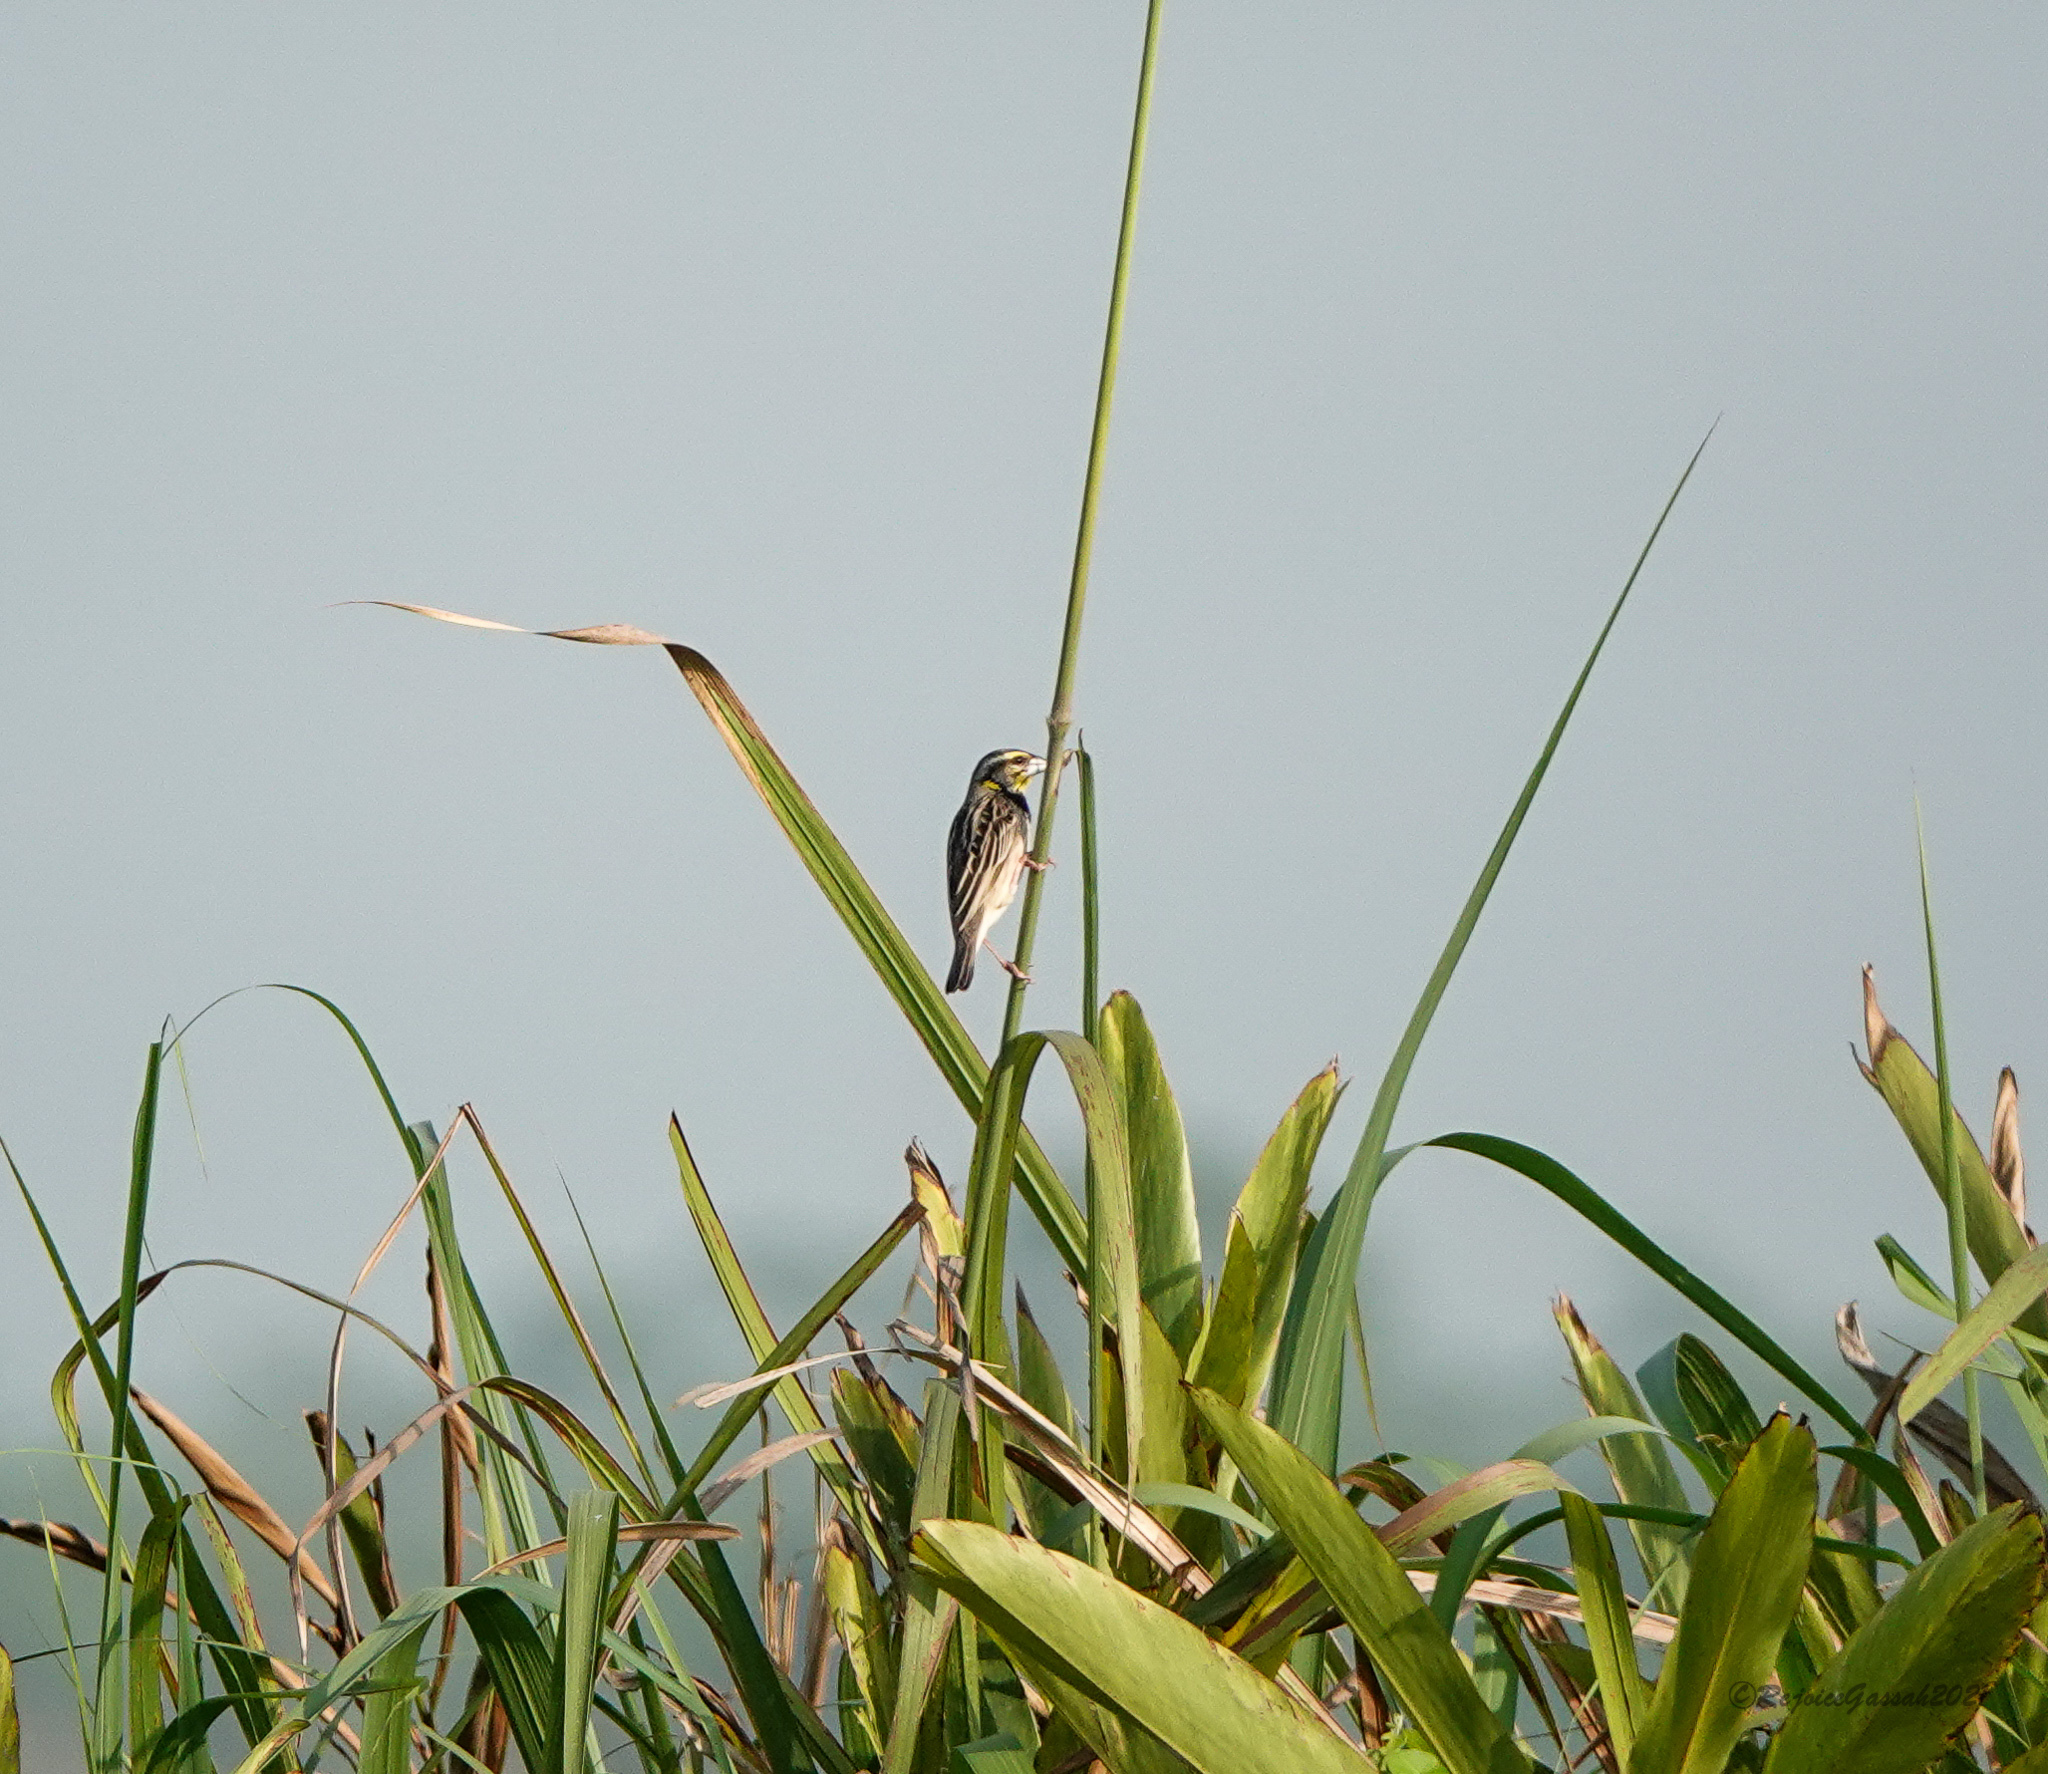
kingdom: Animalia
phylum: Chordata
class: Aves
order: Passeriformes
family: Ploceidae
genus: Ploceus
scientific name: Ploceus benghalensis
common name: Black-breasted weaver
